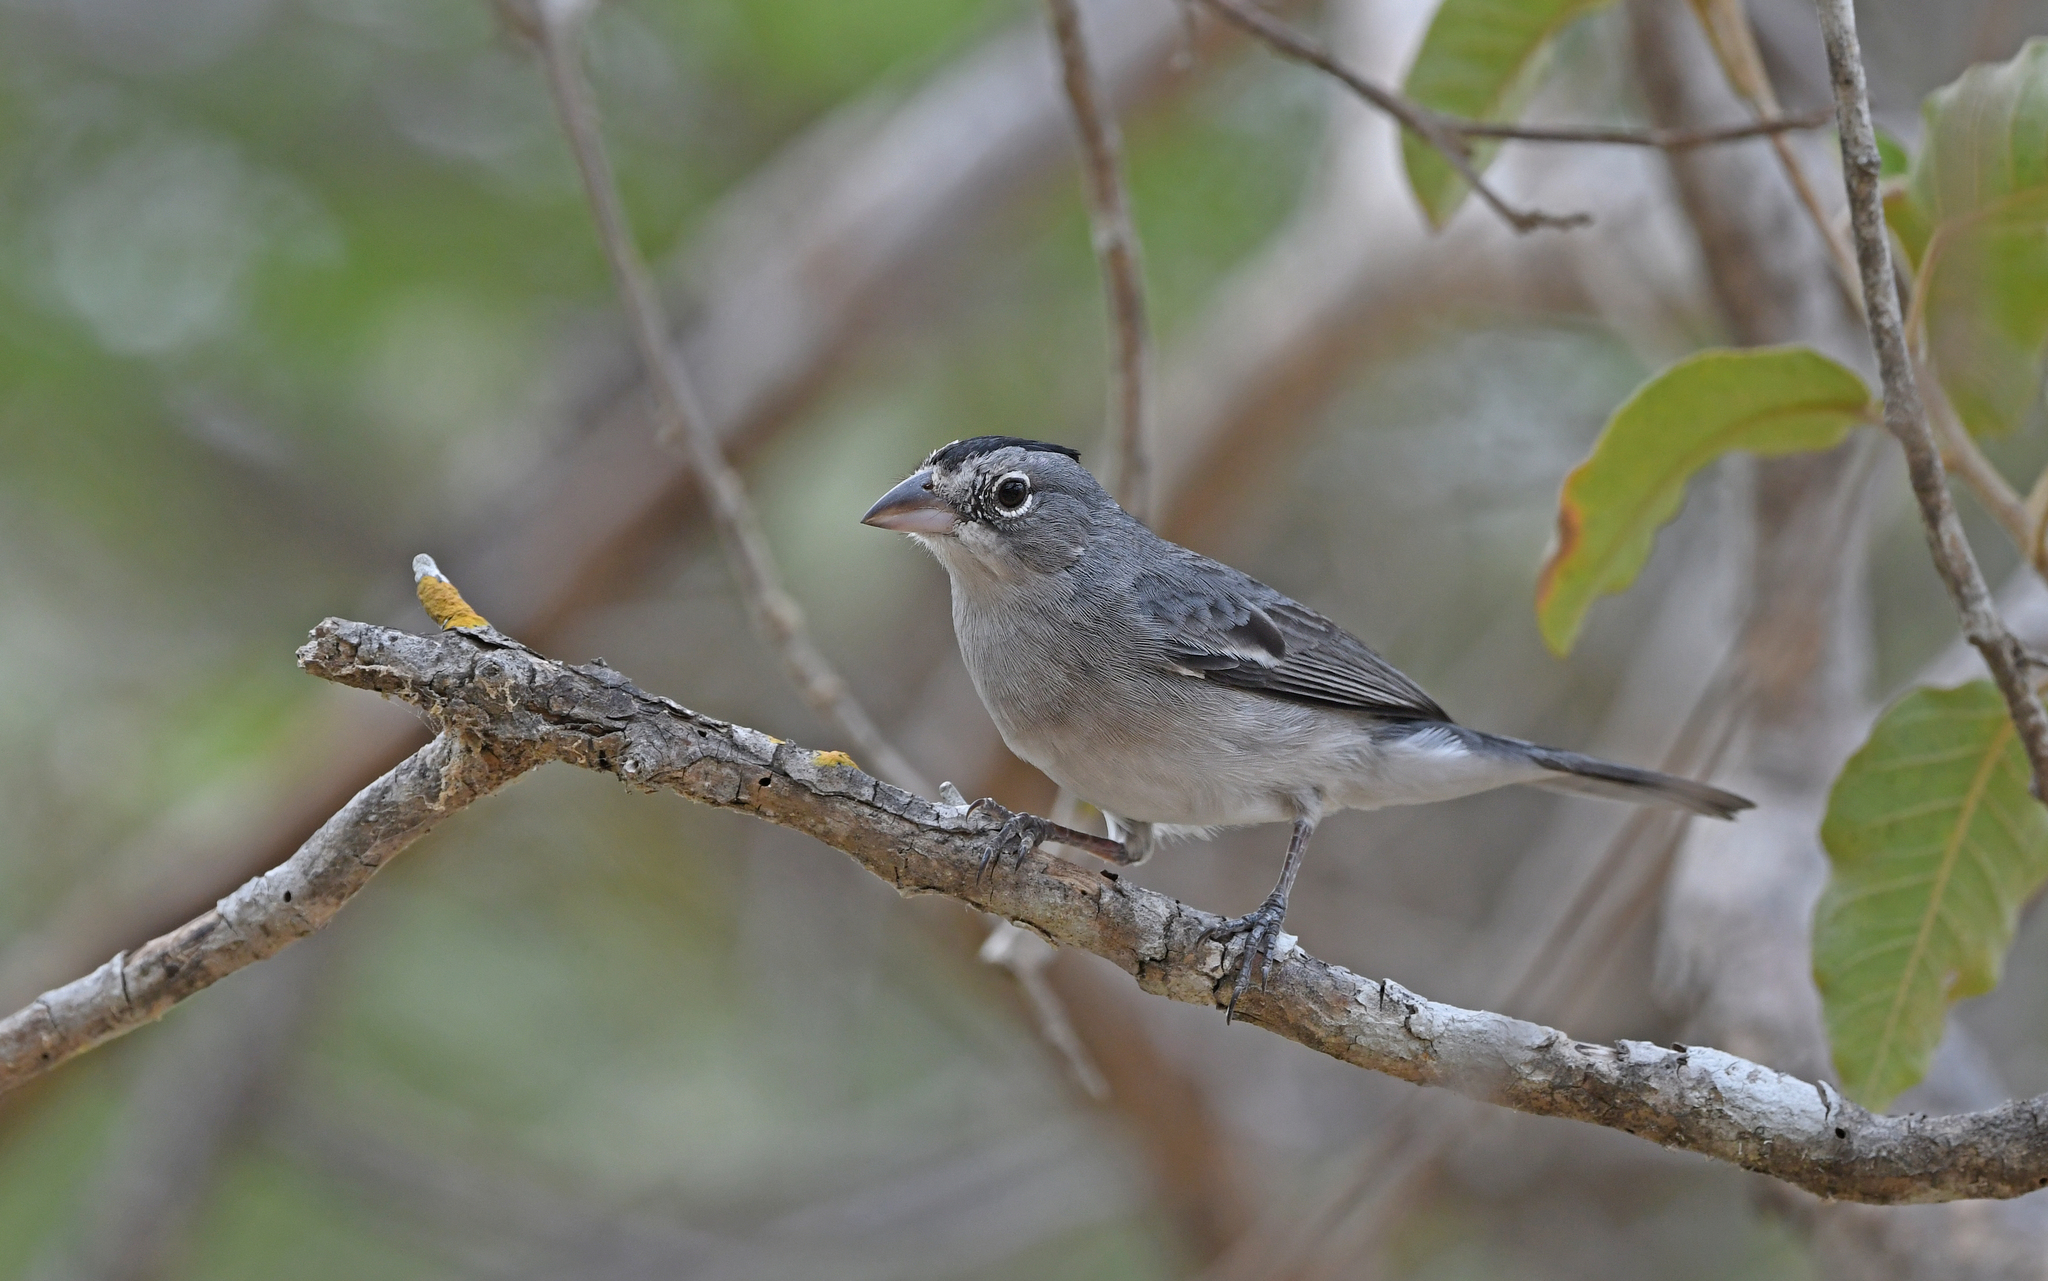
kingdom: Animalia
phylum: Chordata
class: Aves
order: Passeriformes
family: Thraupidae
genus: Coryphospingus
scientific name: Coryphospingus pileatus
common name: Grey pileated finch
